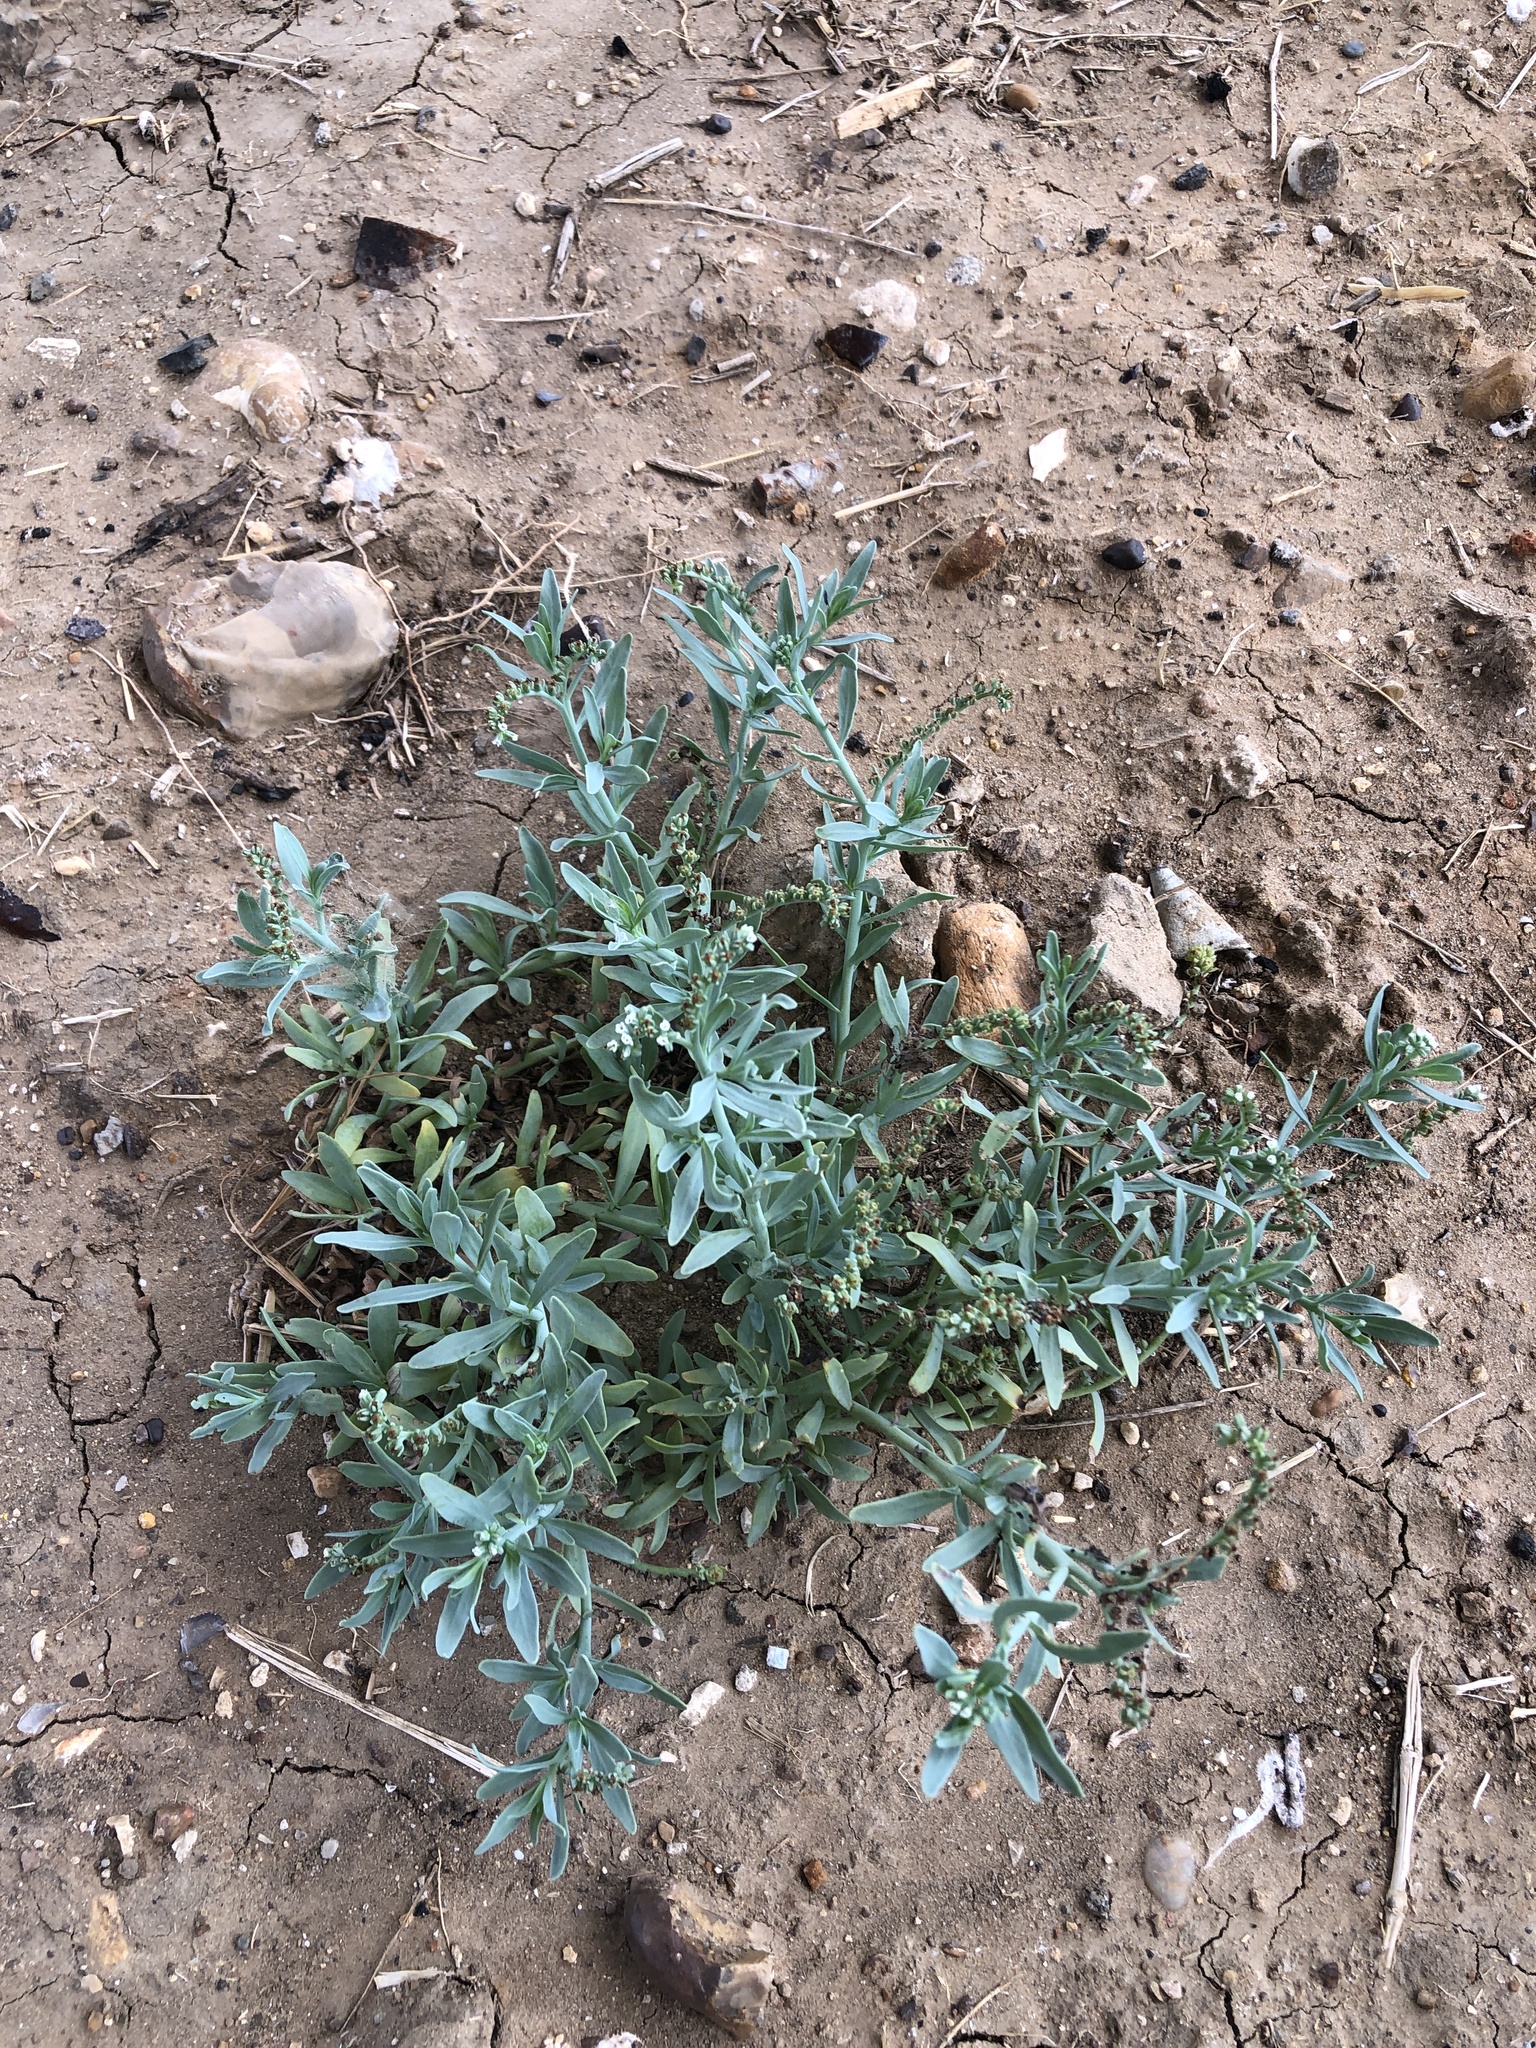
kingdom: Plantae
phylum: Tracheophyta
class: Magnoliopsida
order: Boraginales
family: Heliotropiaceae
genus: Heliotropium
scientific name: Heliotropium curassavicum
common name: Seaside heliotrope
